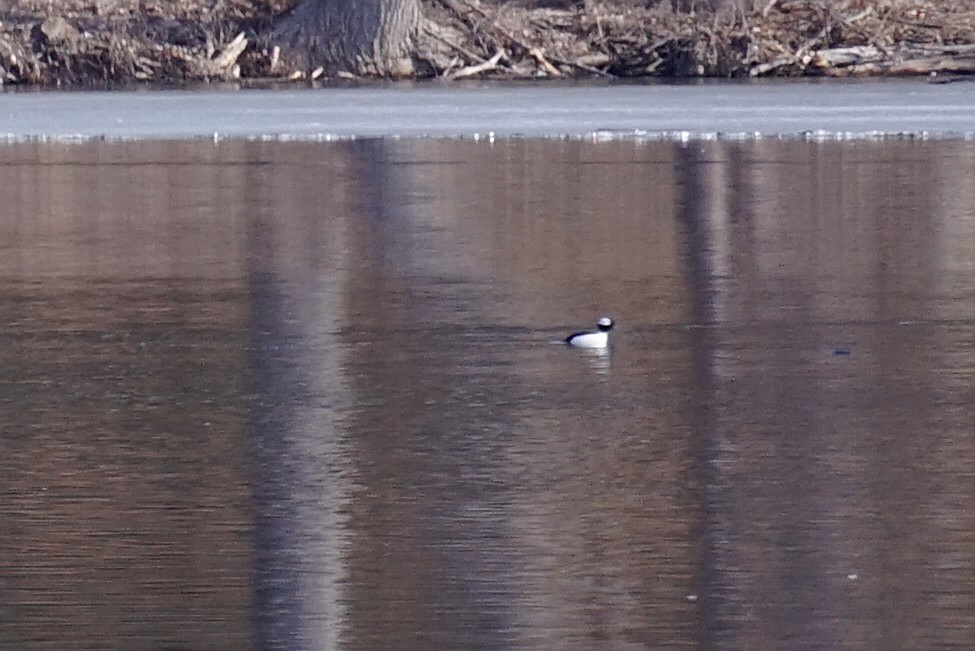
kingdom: Animalia
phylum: Chordata
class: Aves
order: Anseriformes
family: Anatidae
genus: Bucephala
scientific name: Bucephala albeola
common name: Bufflehead
